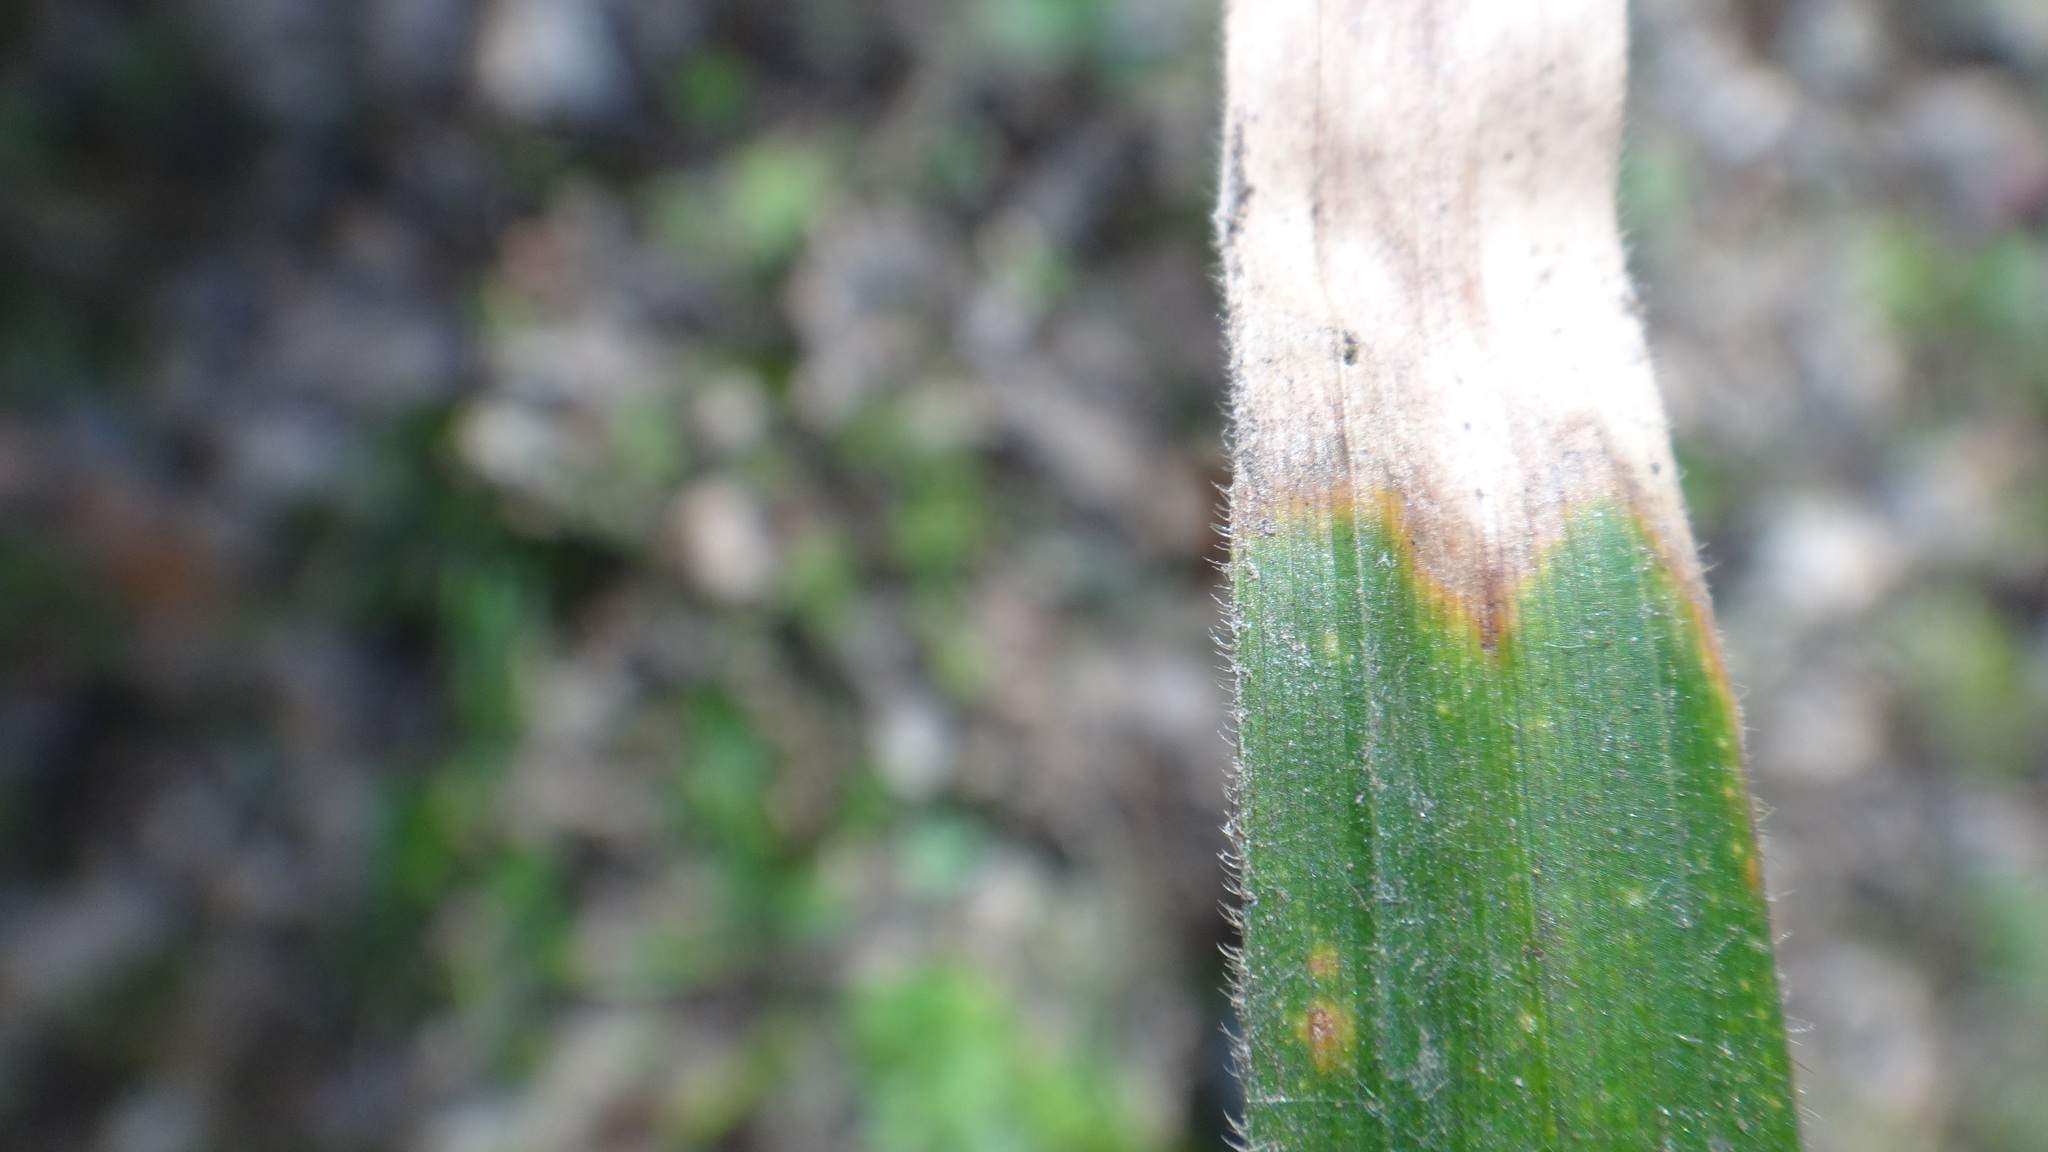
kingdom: Plantae
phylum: Tracheophyta
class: Liliopsida
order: Poales
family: Cyperaceae
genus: Carex
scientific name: Carex pilosa
